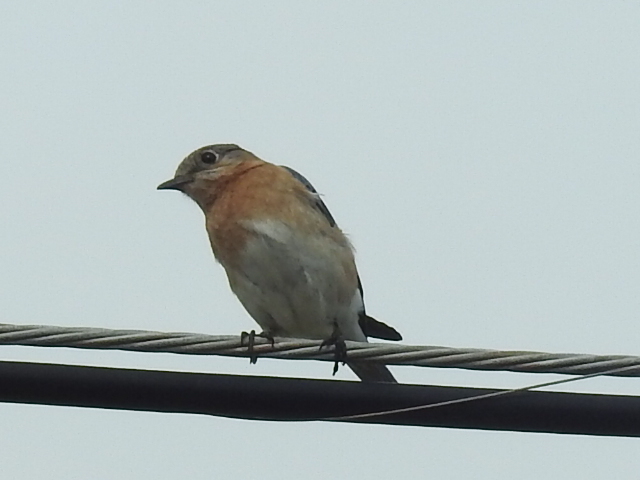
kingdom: Animalia
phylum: Chordata
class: Aves
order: Passeriformes
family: Turdidae
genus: Sialia
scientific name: Sialia sialis
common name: Eastern bluebird
